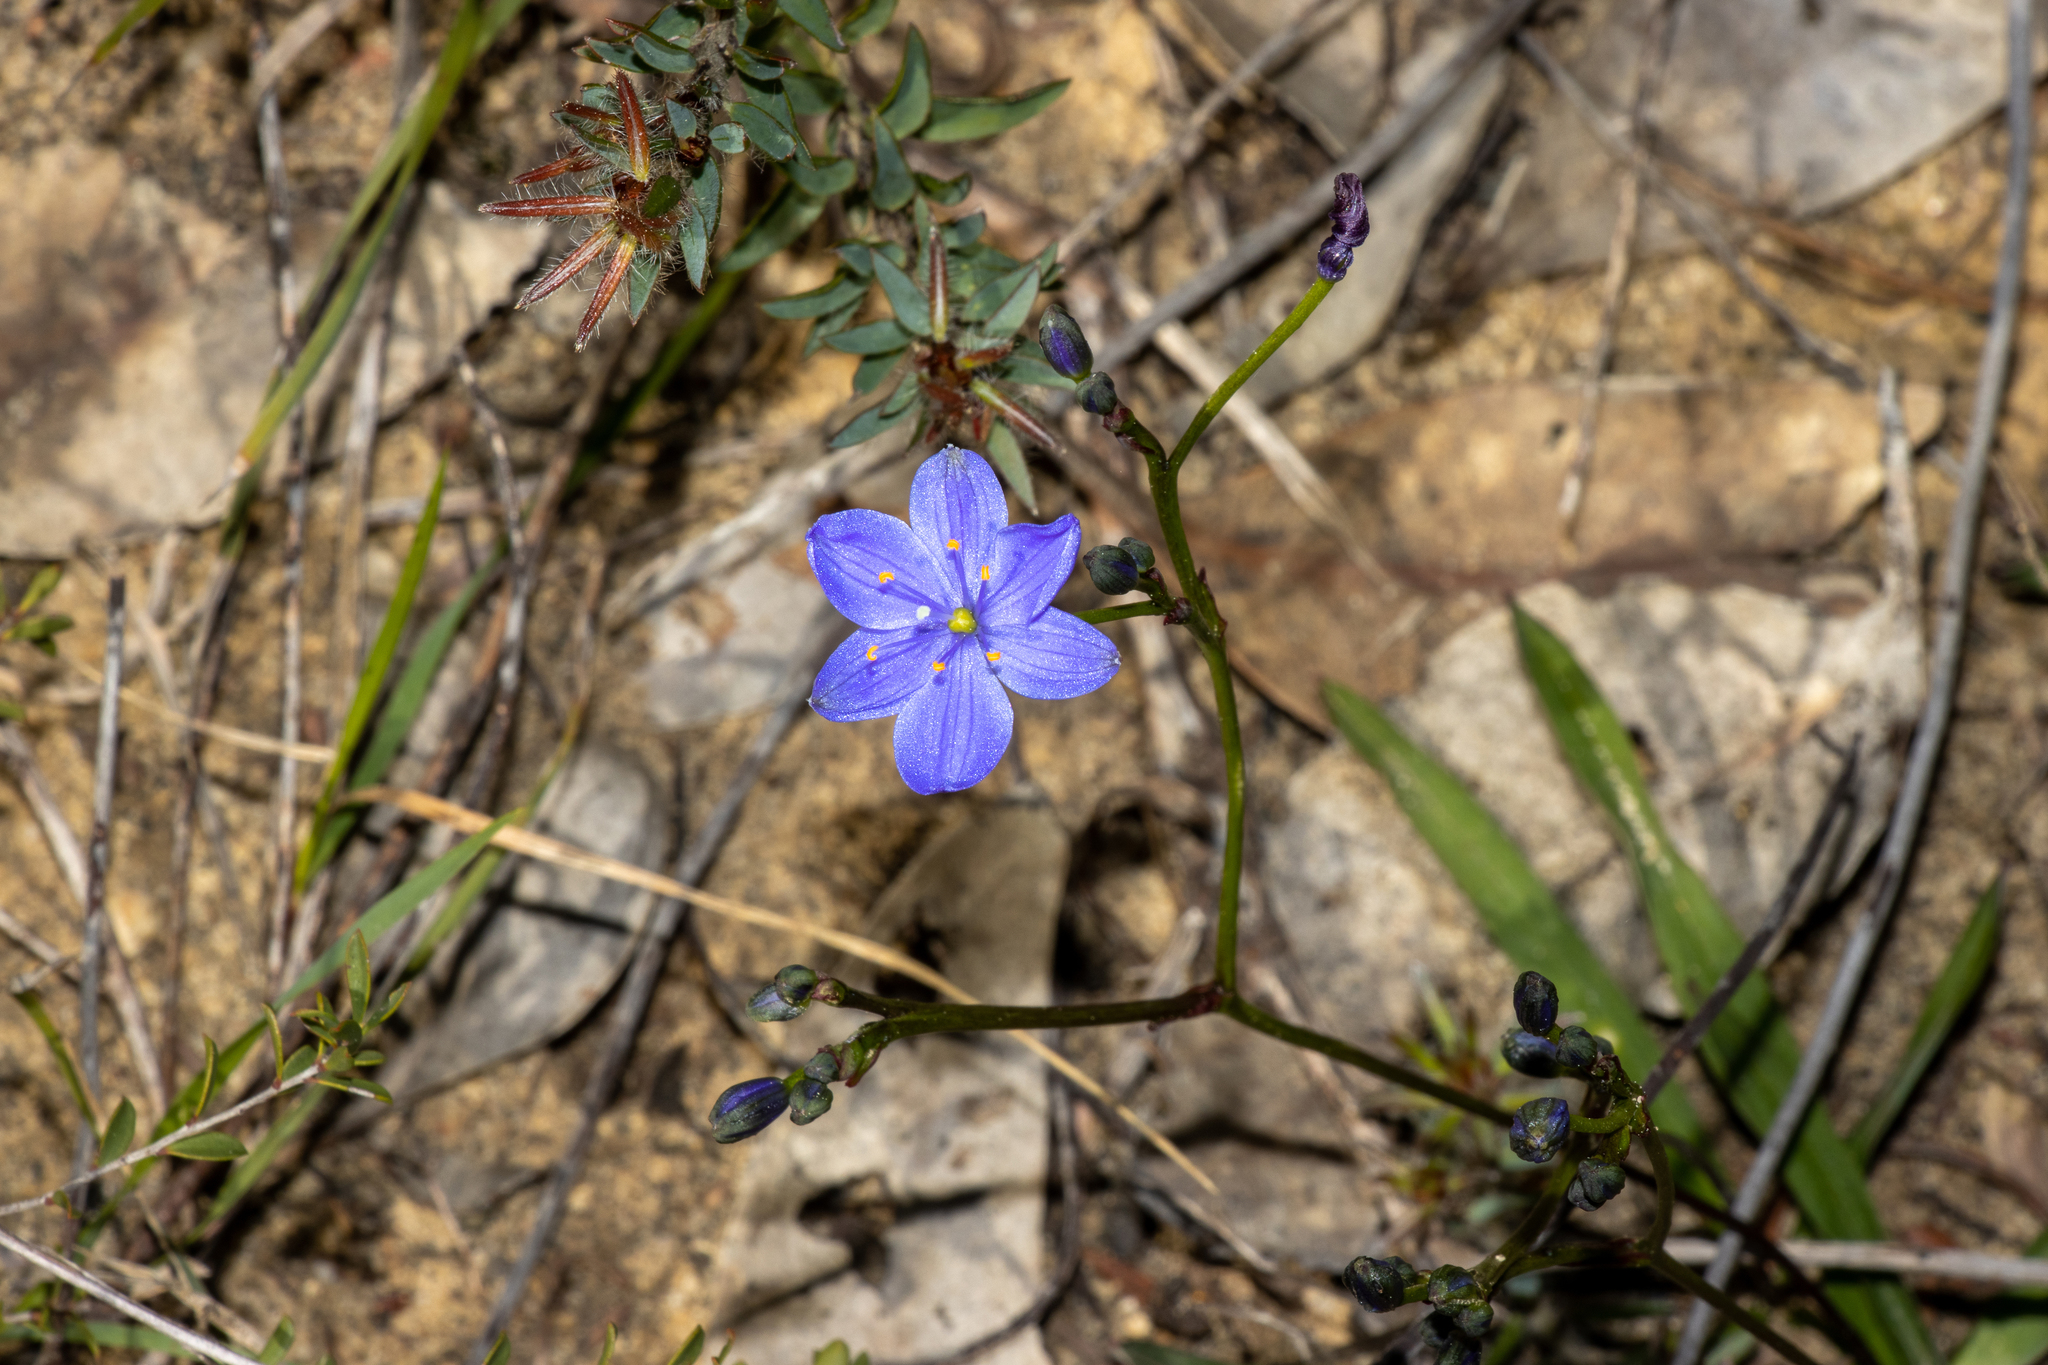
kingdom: Plantae
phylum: Tracheophyta
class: Liliopsida
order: Asparagales
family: Asphodelaceae
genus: Chamaescilla
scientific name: Chamaescilla corymbosa
